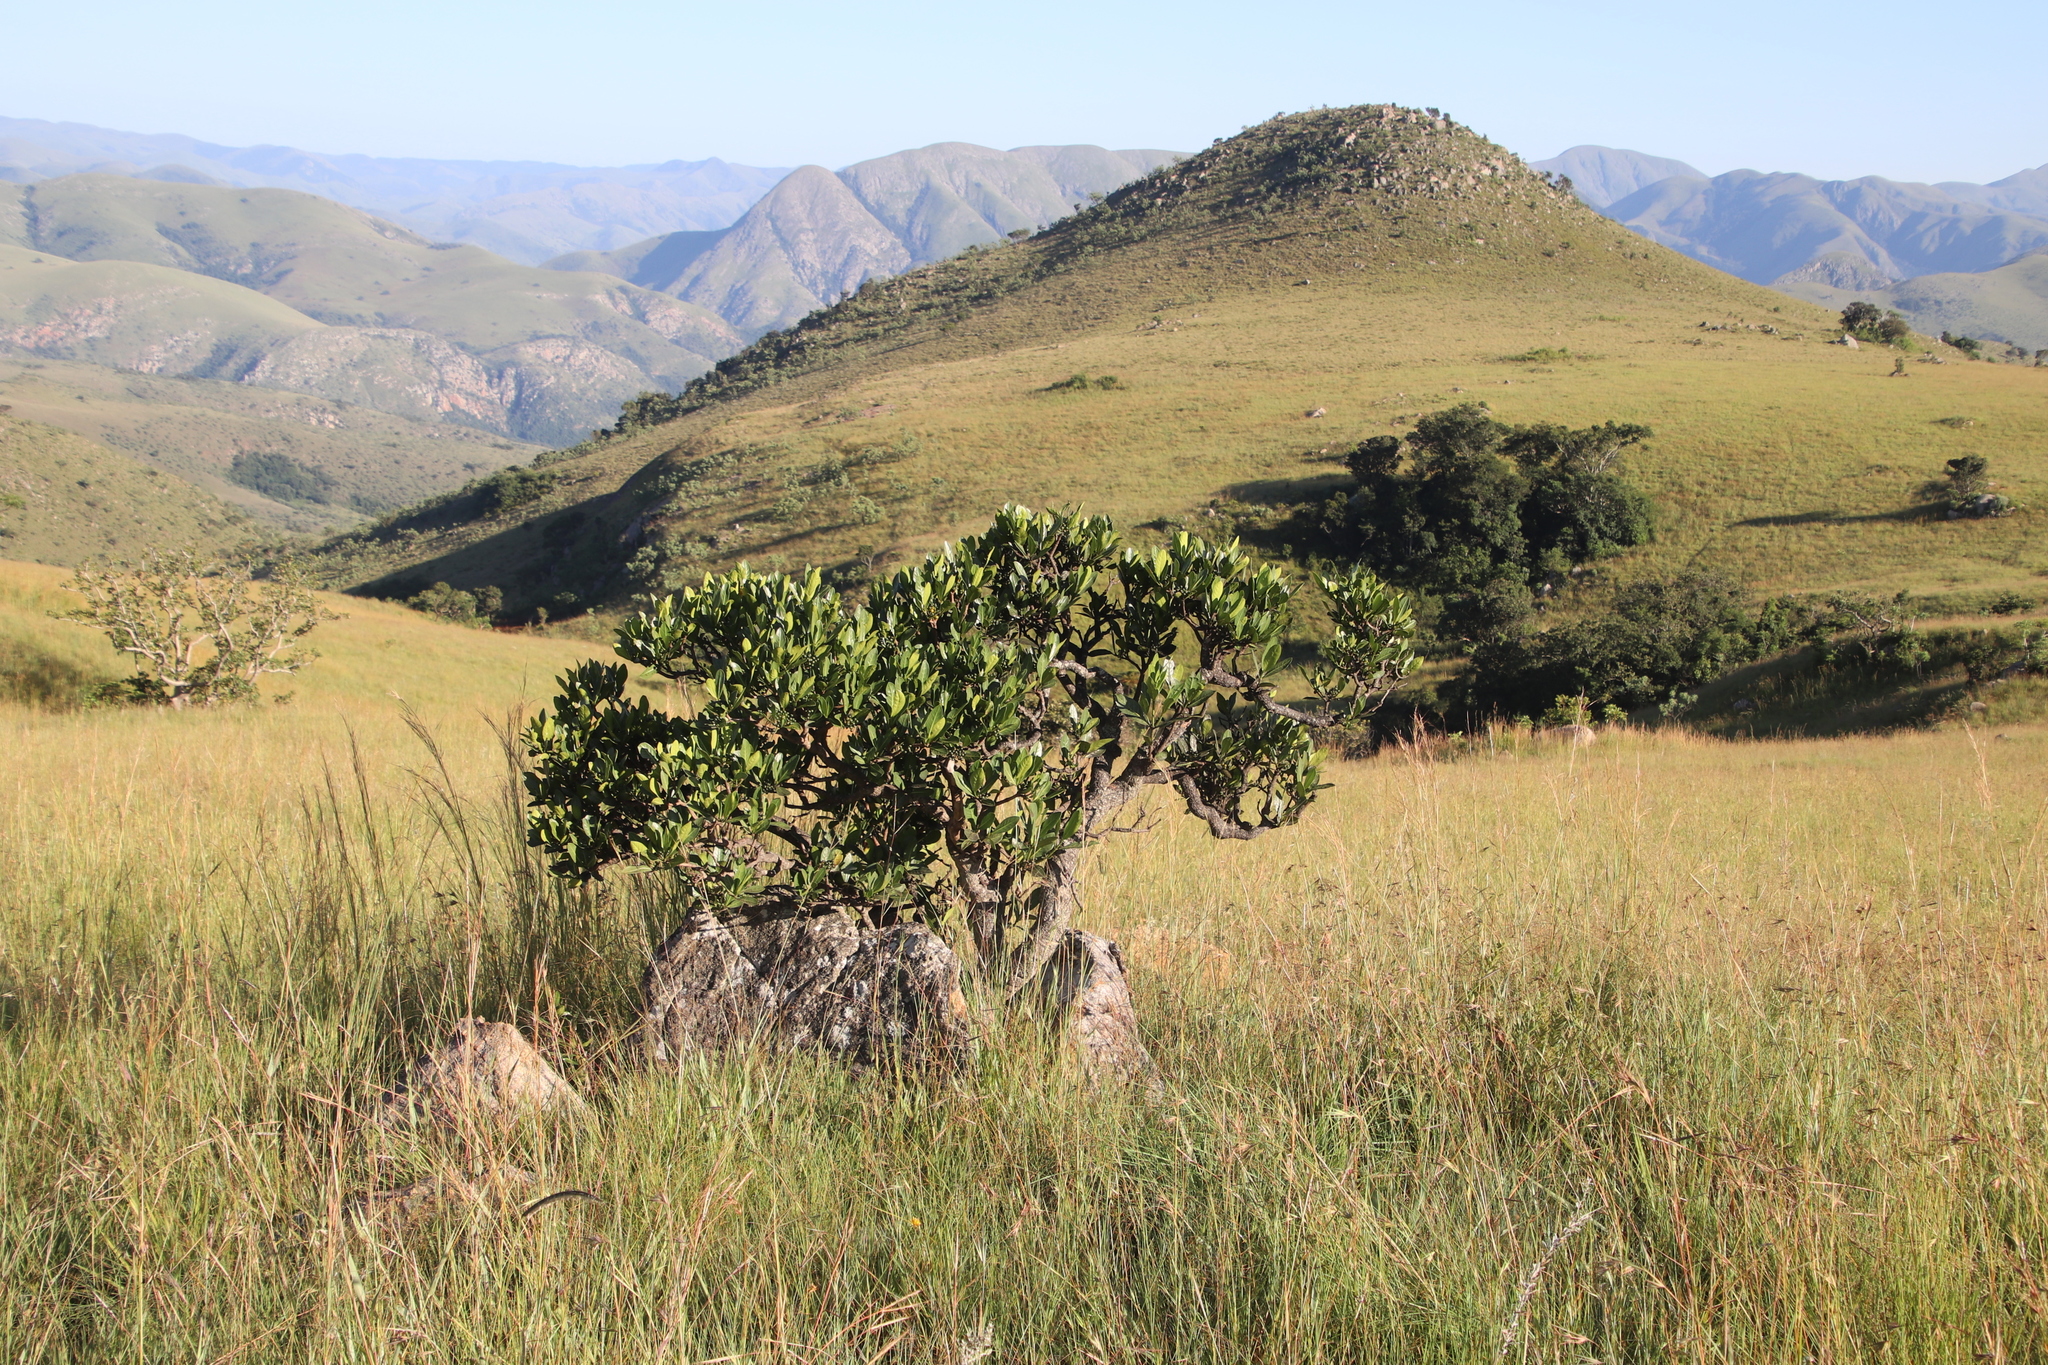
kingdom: Plantae
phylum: Tracheophyta
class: Magnoliopsida
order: Gentianales
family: Rubiaceae
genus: Psychotria
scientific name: Psychotria
